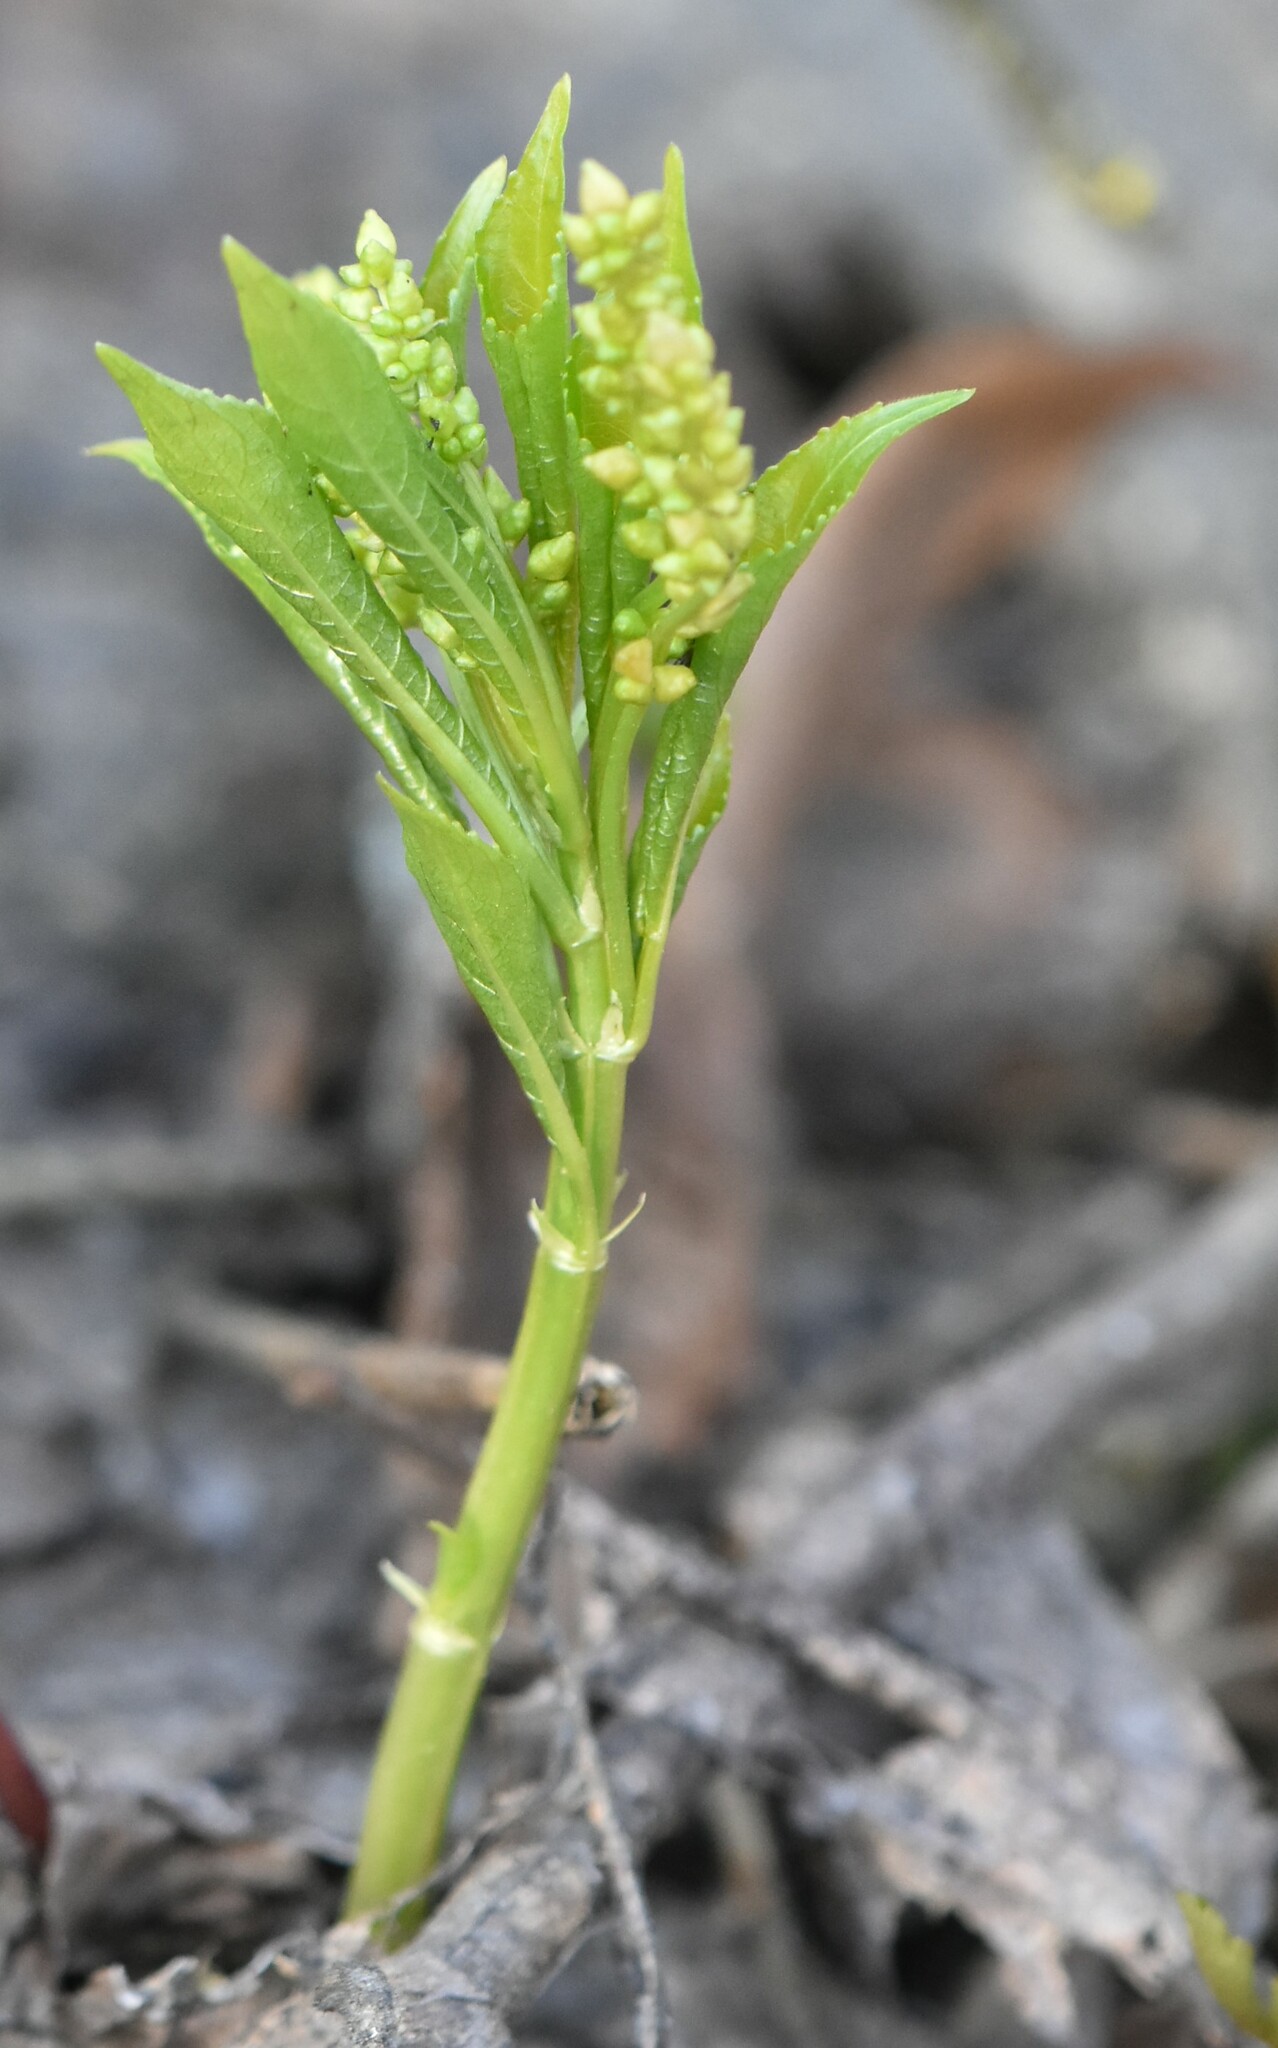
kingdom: Plantae
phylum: Tracheophyta
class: Magnoliopsida
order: Malpighiales
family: Euphorbiaceae
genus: Mercurialis
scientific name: Mercurialis perennis
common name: Dog mercury
